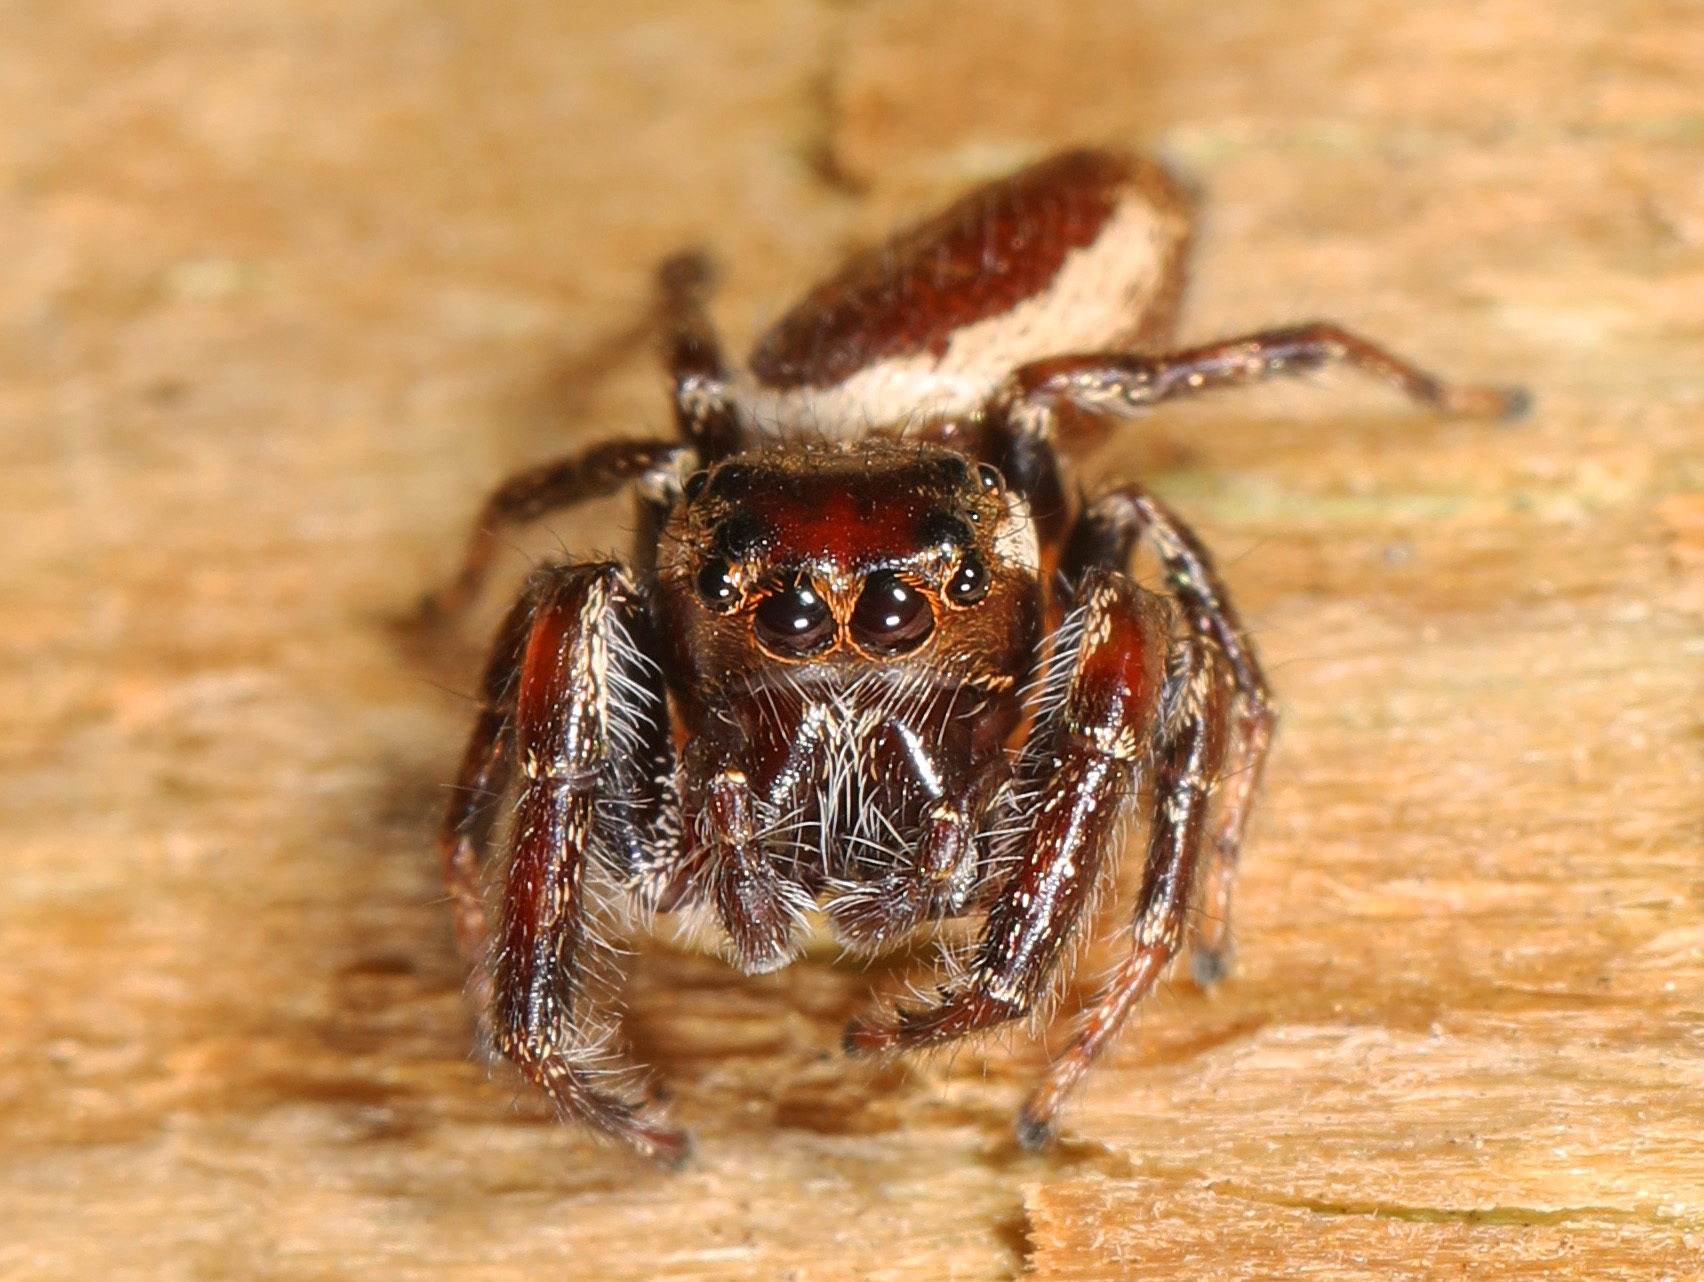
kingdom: Animalia
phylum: Arthropoda
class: Arachnida
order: Araneae
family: Salticidae
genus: Eris
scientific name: Eris militaris
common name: Bronze jumper
